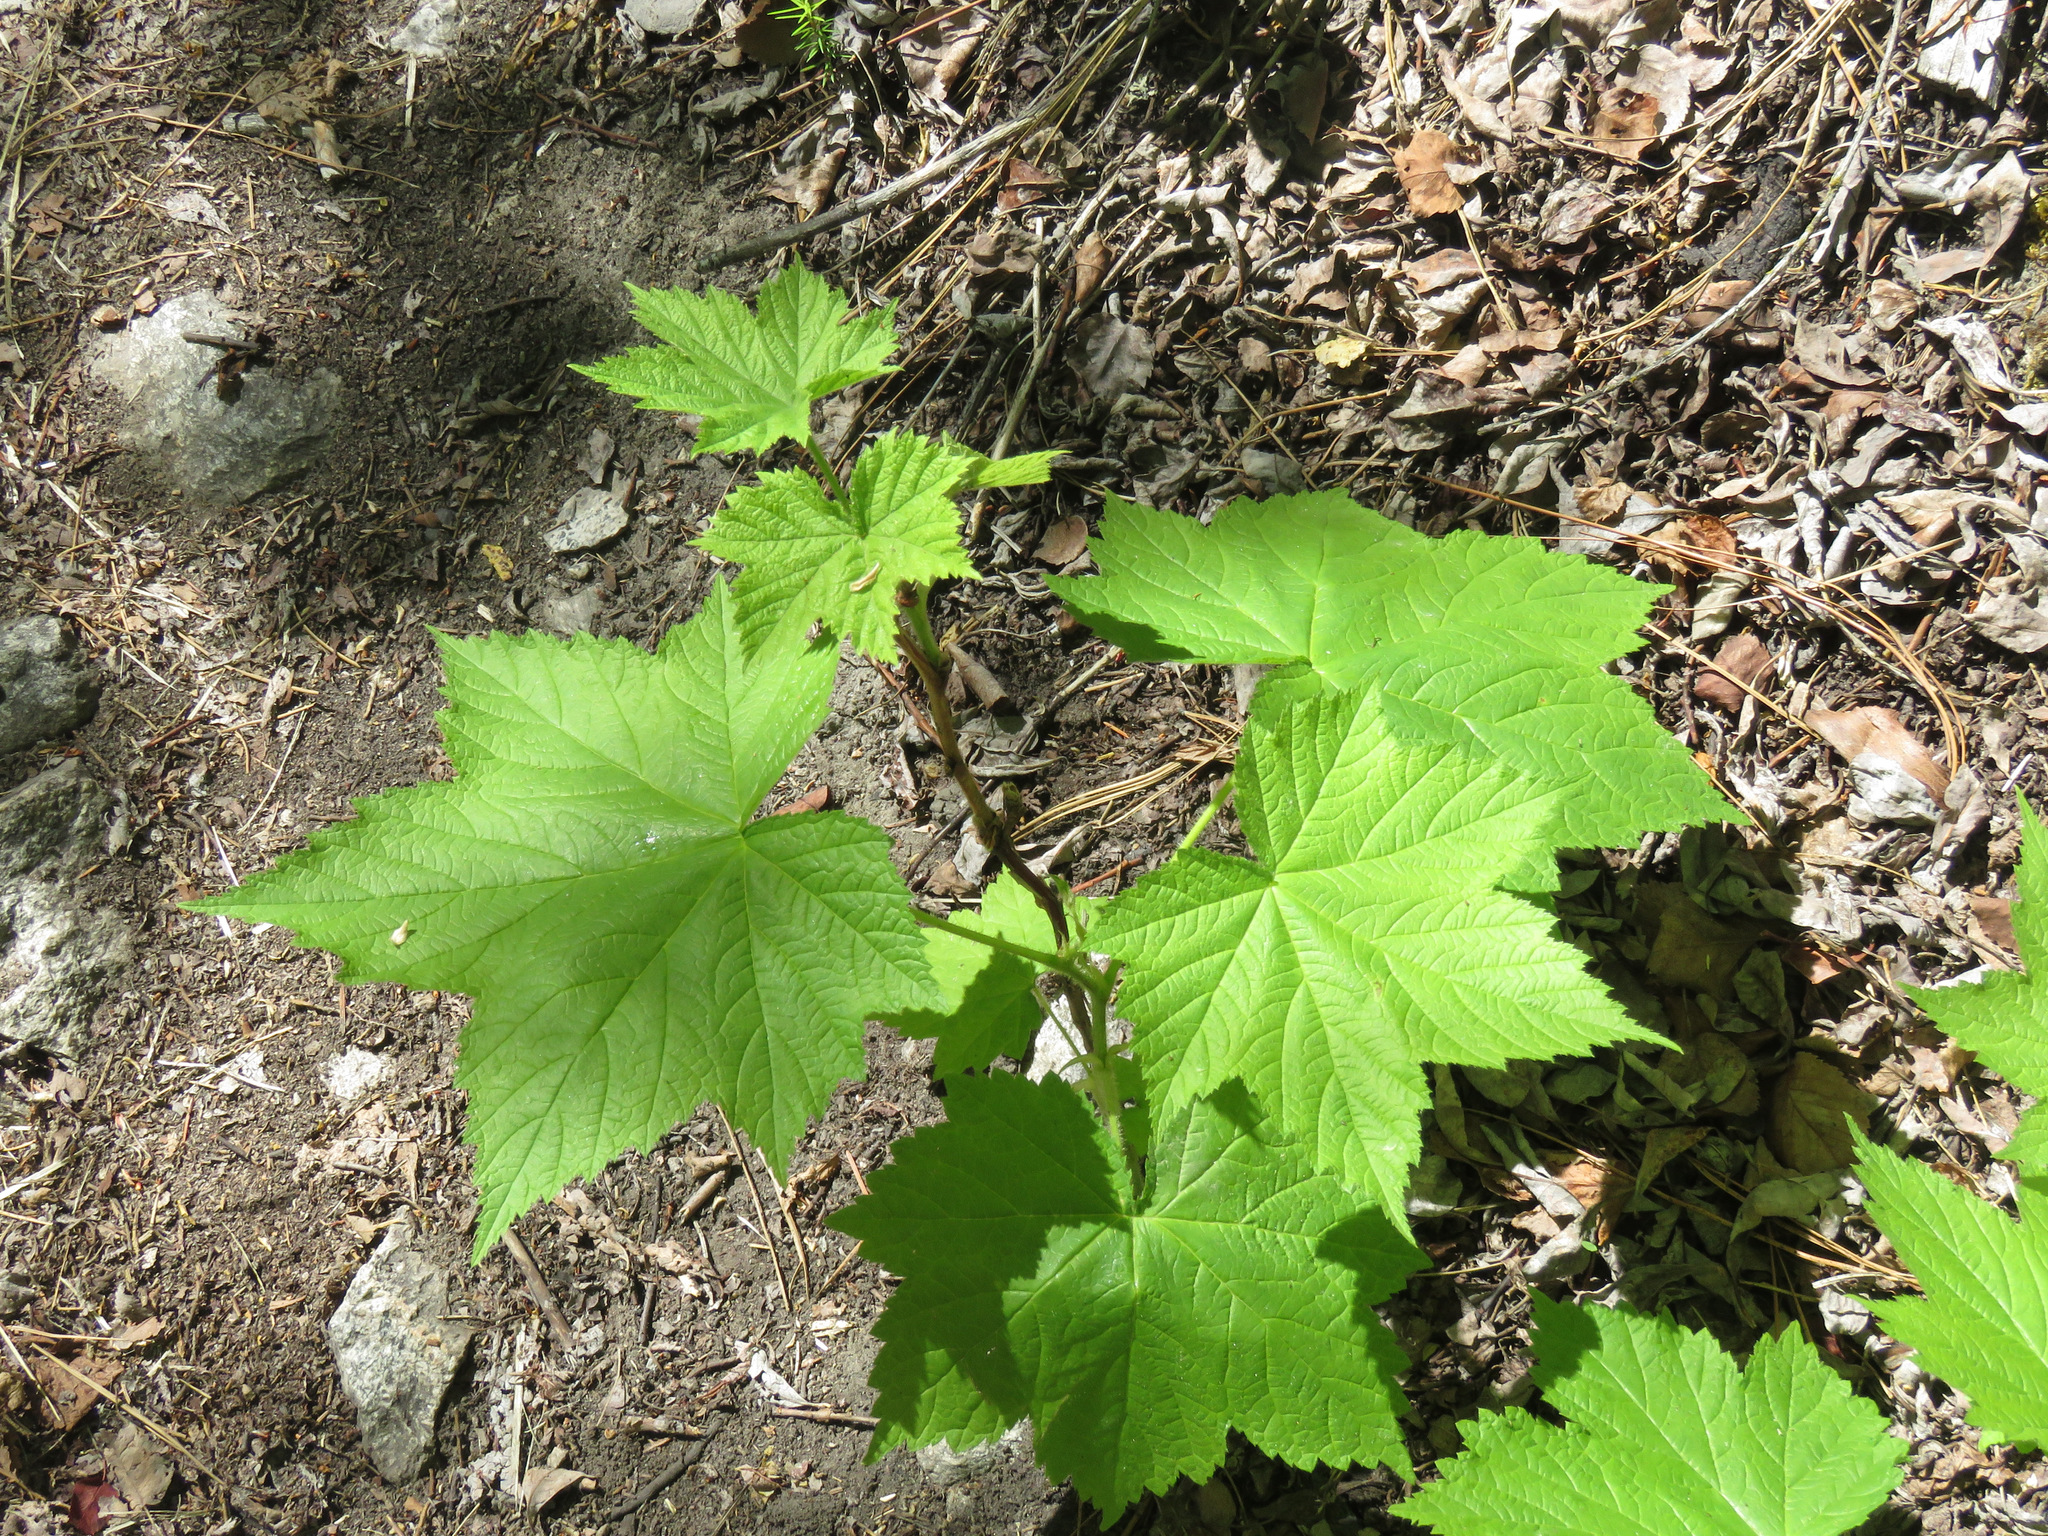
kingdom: Plantae
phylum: Tracheophyta
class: Magnoliopsida
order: Rosales
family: Rosaceae
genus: Rubus
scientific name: Rubus parviflorus
